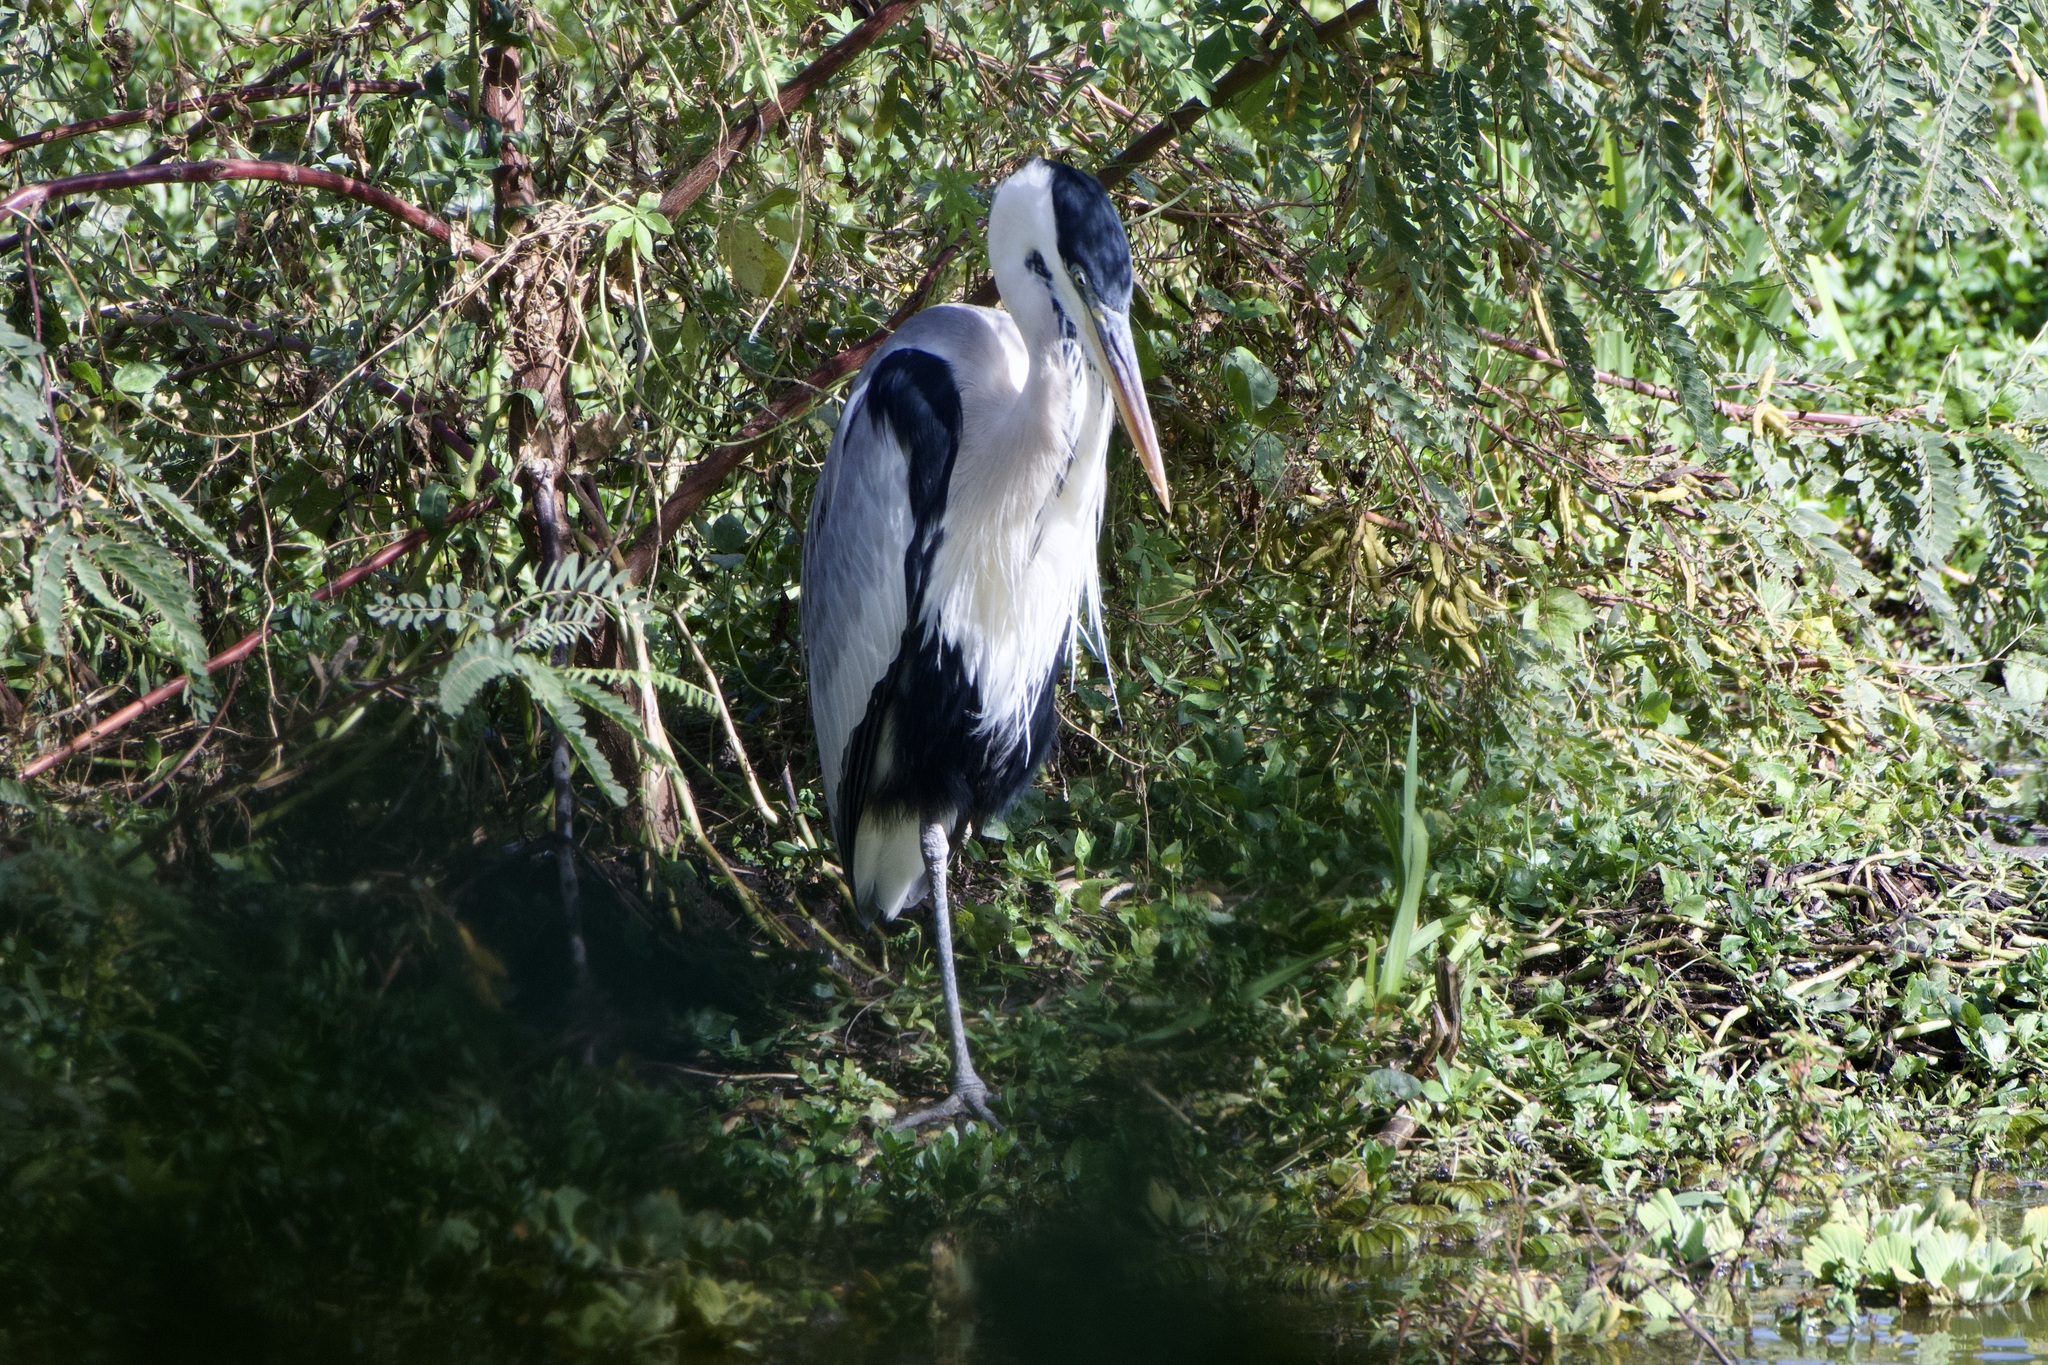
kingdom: Animalia
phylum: Chordata
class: Aves
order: Pelecaniformes
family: Ardeidae
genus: Ardea
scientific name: Ardea cocoi
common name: Cocoi heron
